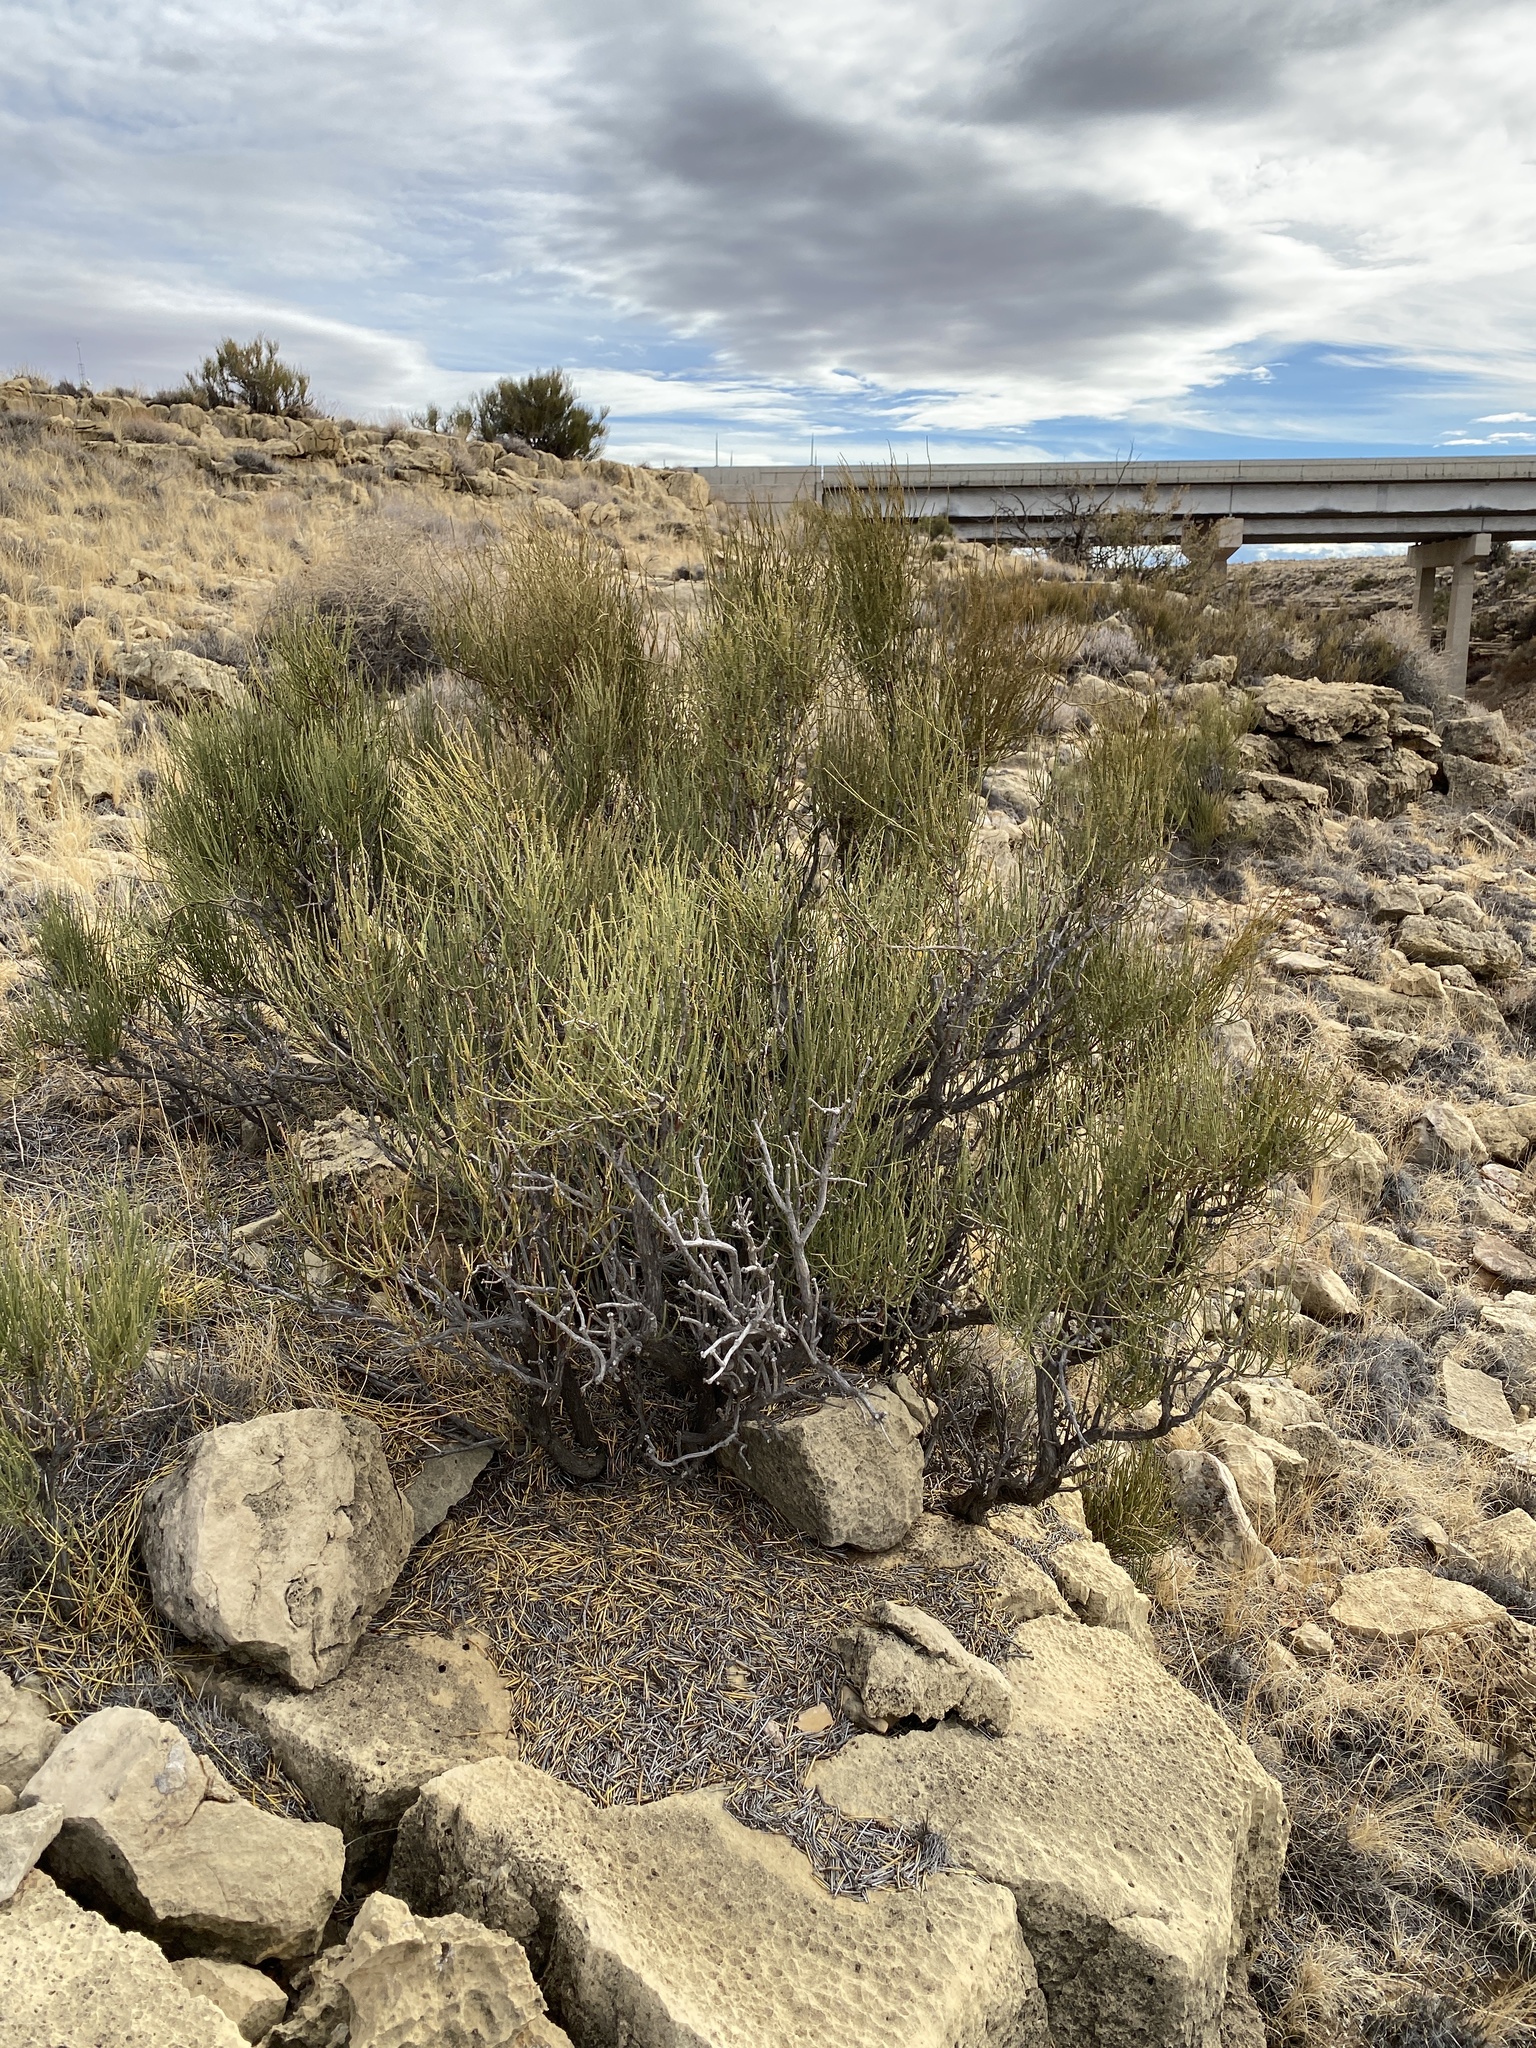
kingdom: Plantae
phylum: Tracheophyta
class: Gnetopsida
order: Ephedrales
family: Ephedraceae
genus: Ephedra
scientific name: Ephedra viridis
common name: Green ephedra
